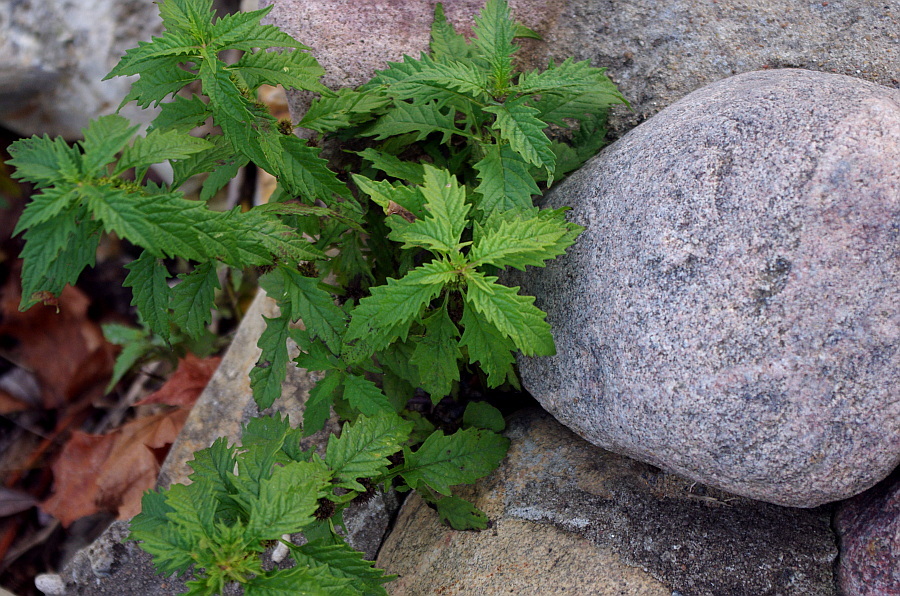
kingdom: Plantae
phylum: Tracheophyta
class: Magnoliopsida
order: Lamiales
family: Lamiaceae
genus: Lycopus
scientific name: Lycopus europaeus
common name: European bugleweed
